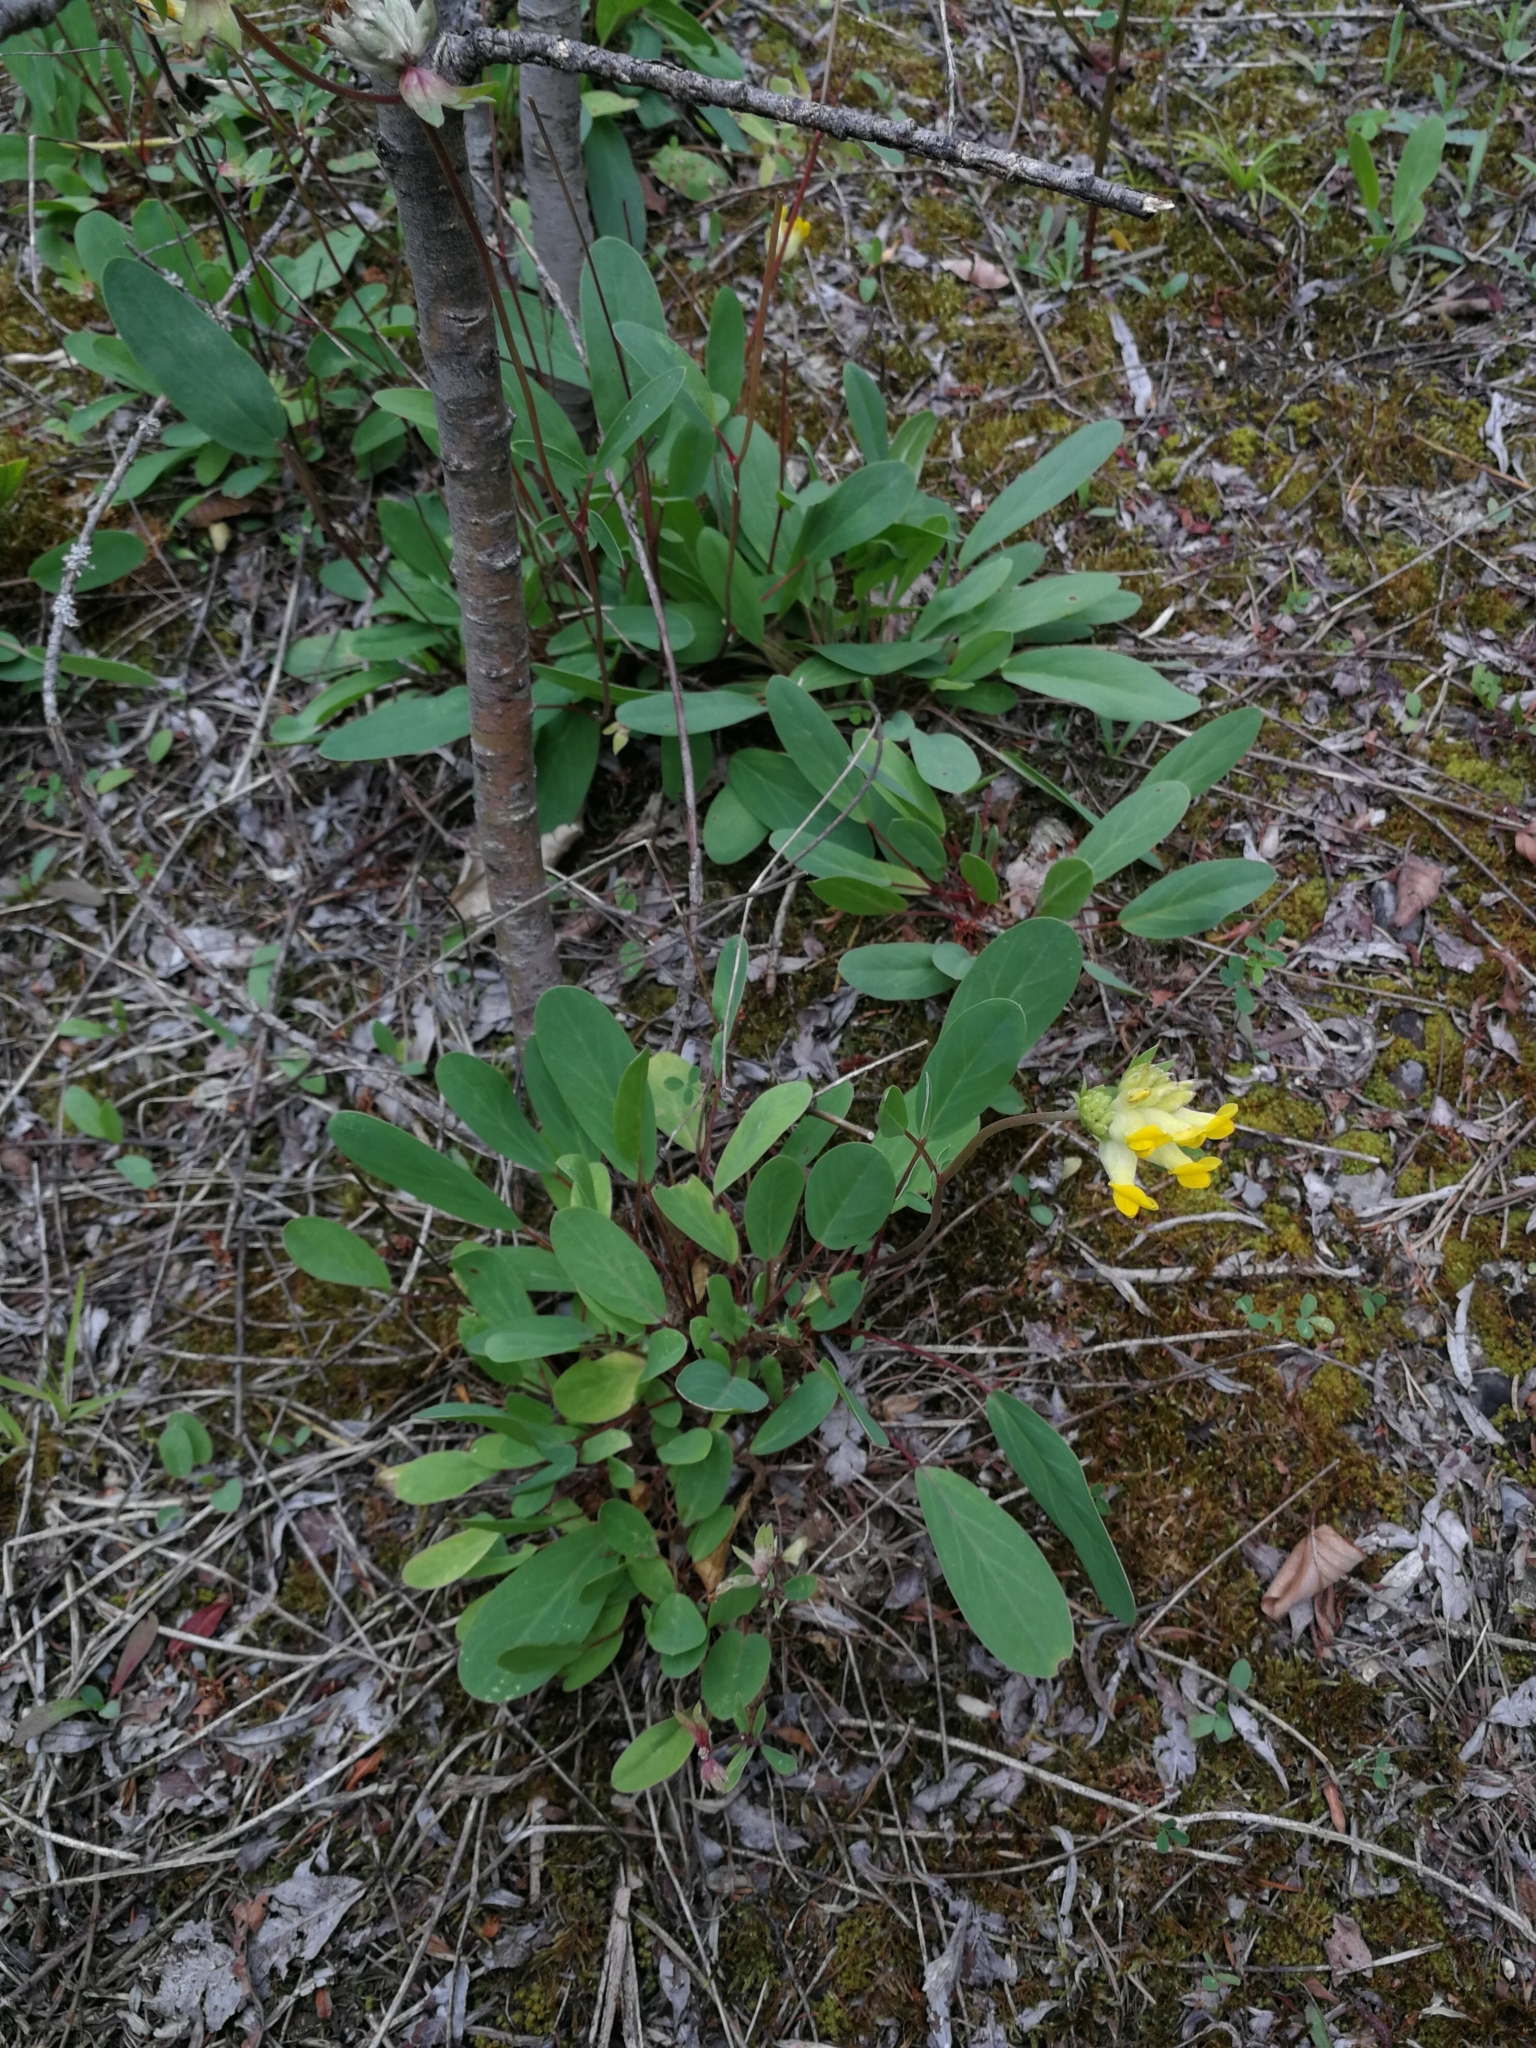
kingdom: Plantae
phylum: Tracheophyta
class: Magnoliopsida
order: Fabales
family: Fabaceae
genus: Anthyllis
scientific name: Anthyllis vulneraria
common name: Kidney vetch
